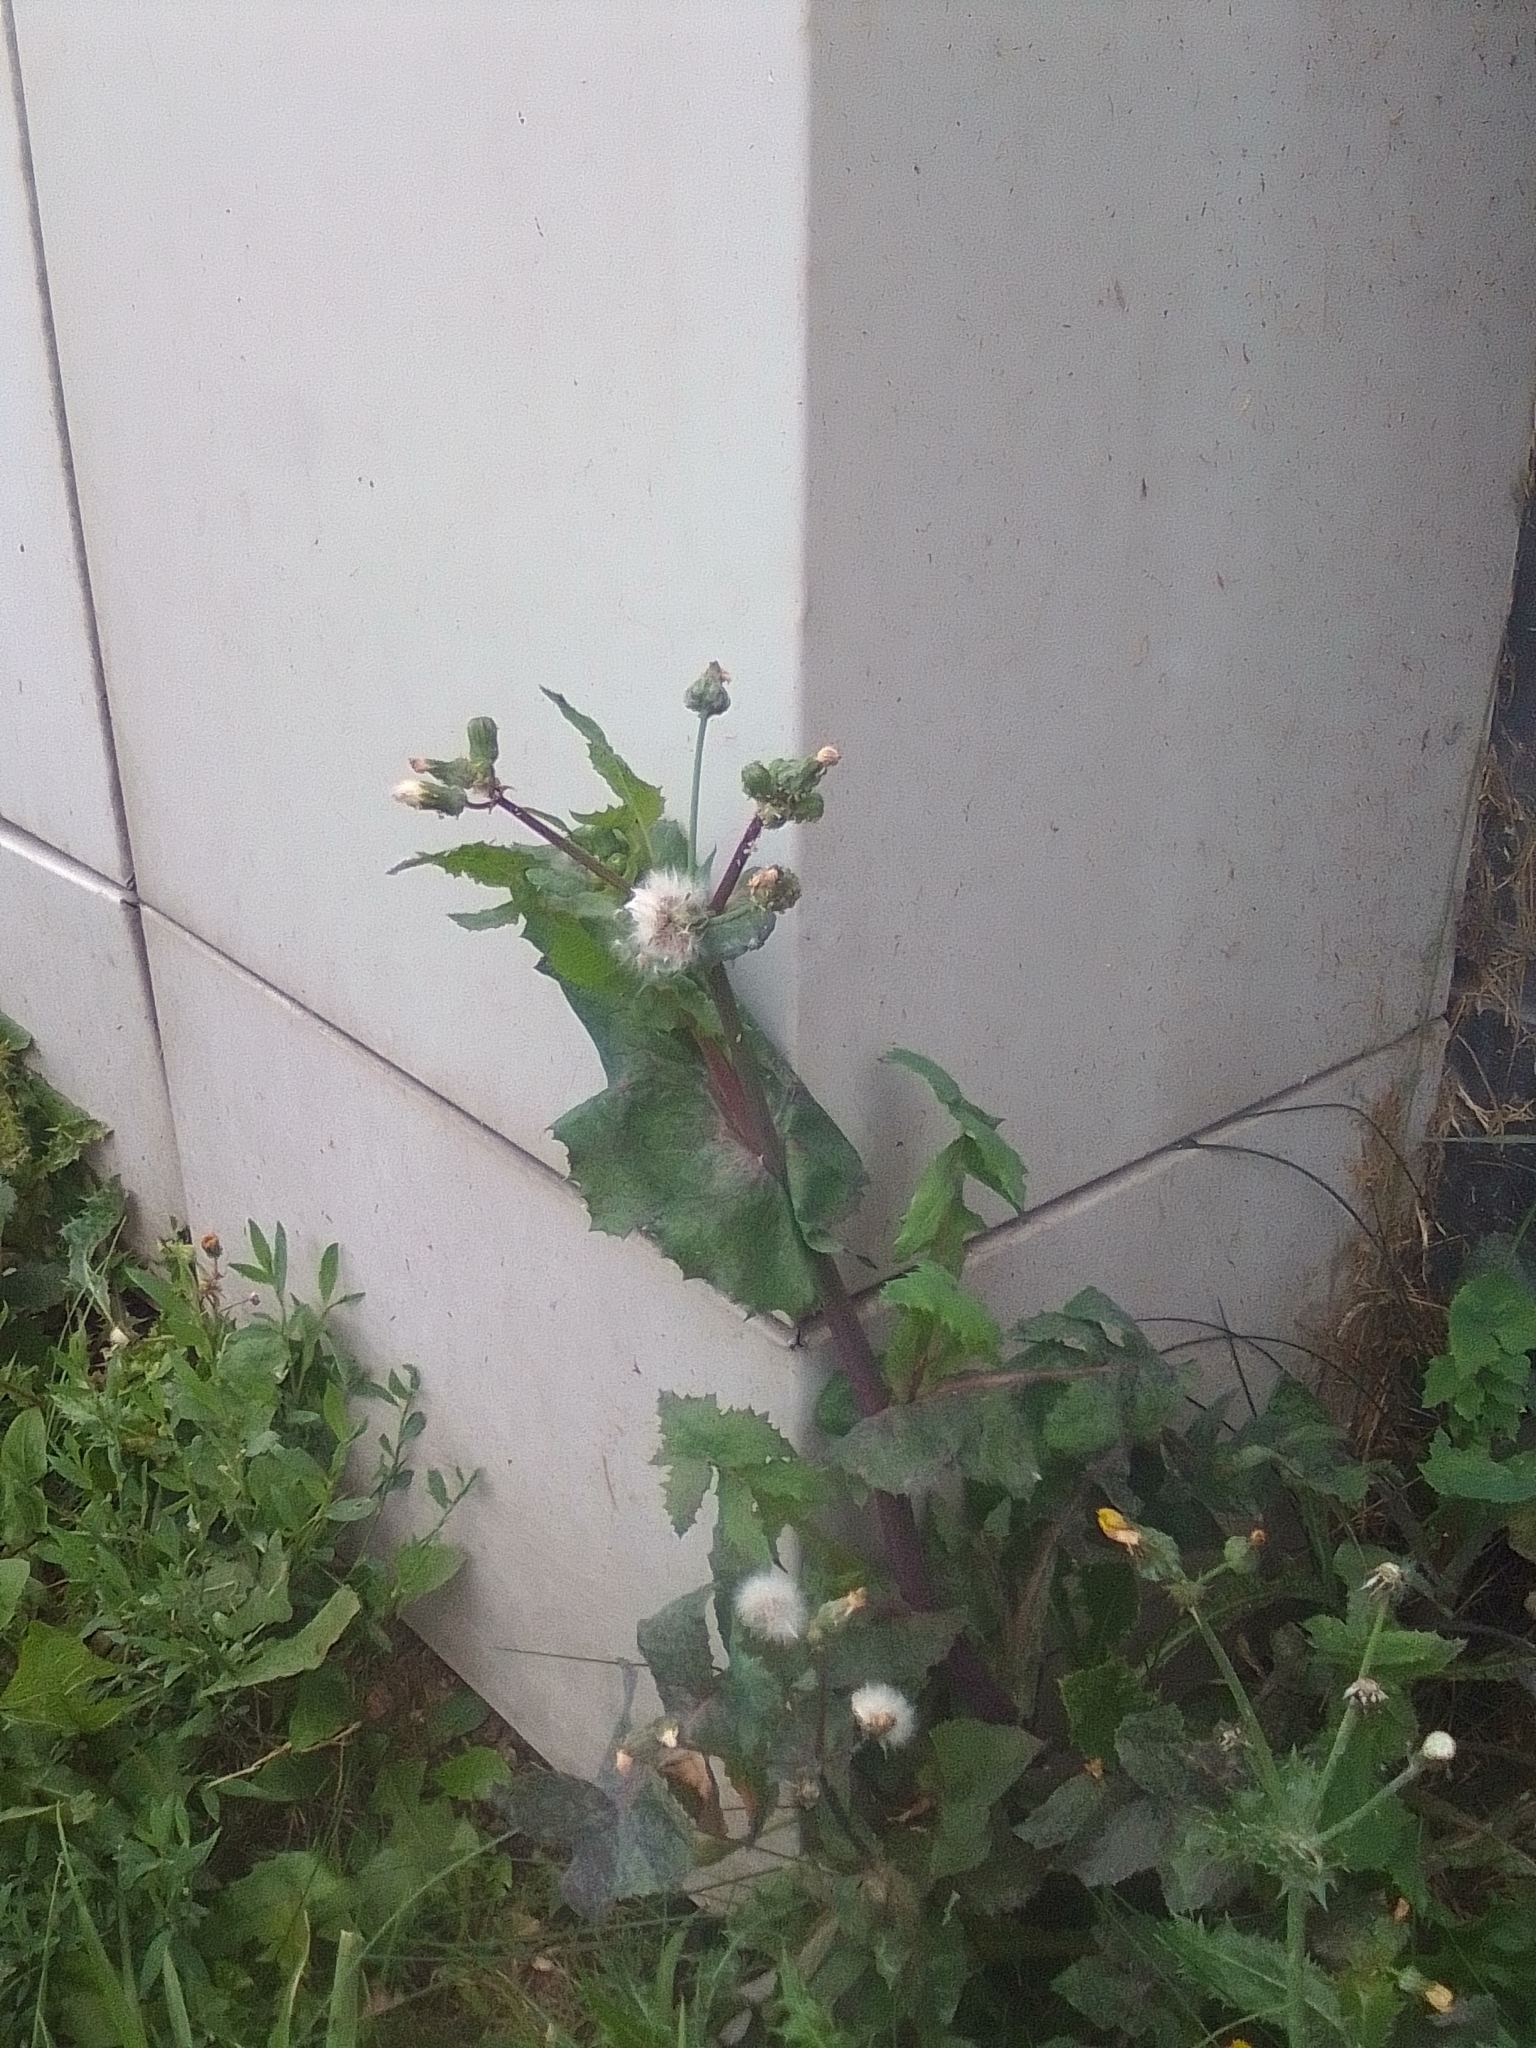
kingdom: Plantae
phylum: Tracheophyta
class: Magnoliopsida
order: Asterales
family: Asteraceae
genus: Sonchus
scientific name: Sonchus oleraceus
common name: Common sowthistle
